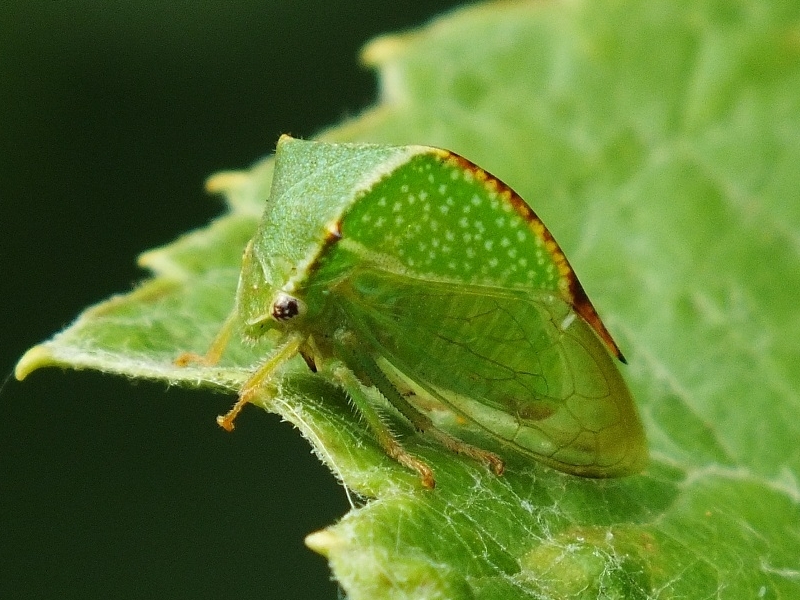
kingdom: Animalia
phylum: Arthropoda
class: Insecta
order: Hemiptera
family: Membracidae
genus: Stictocephala
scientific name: Stictocephala bisonia
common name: American buffalo treehopper
